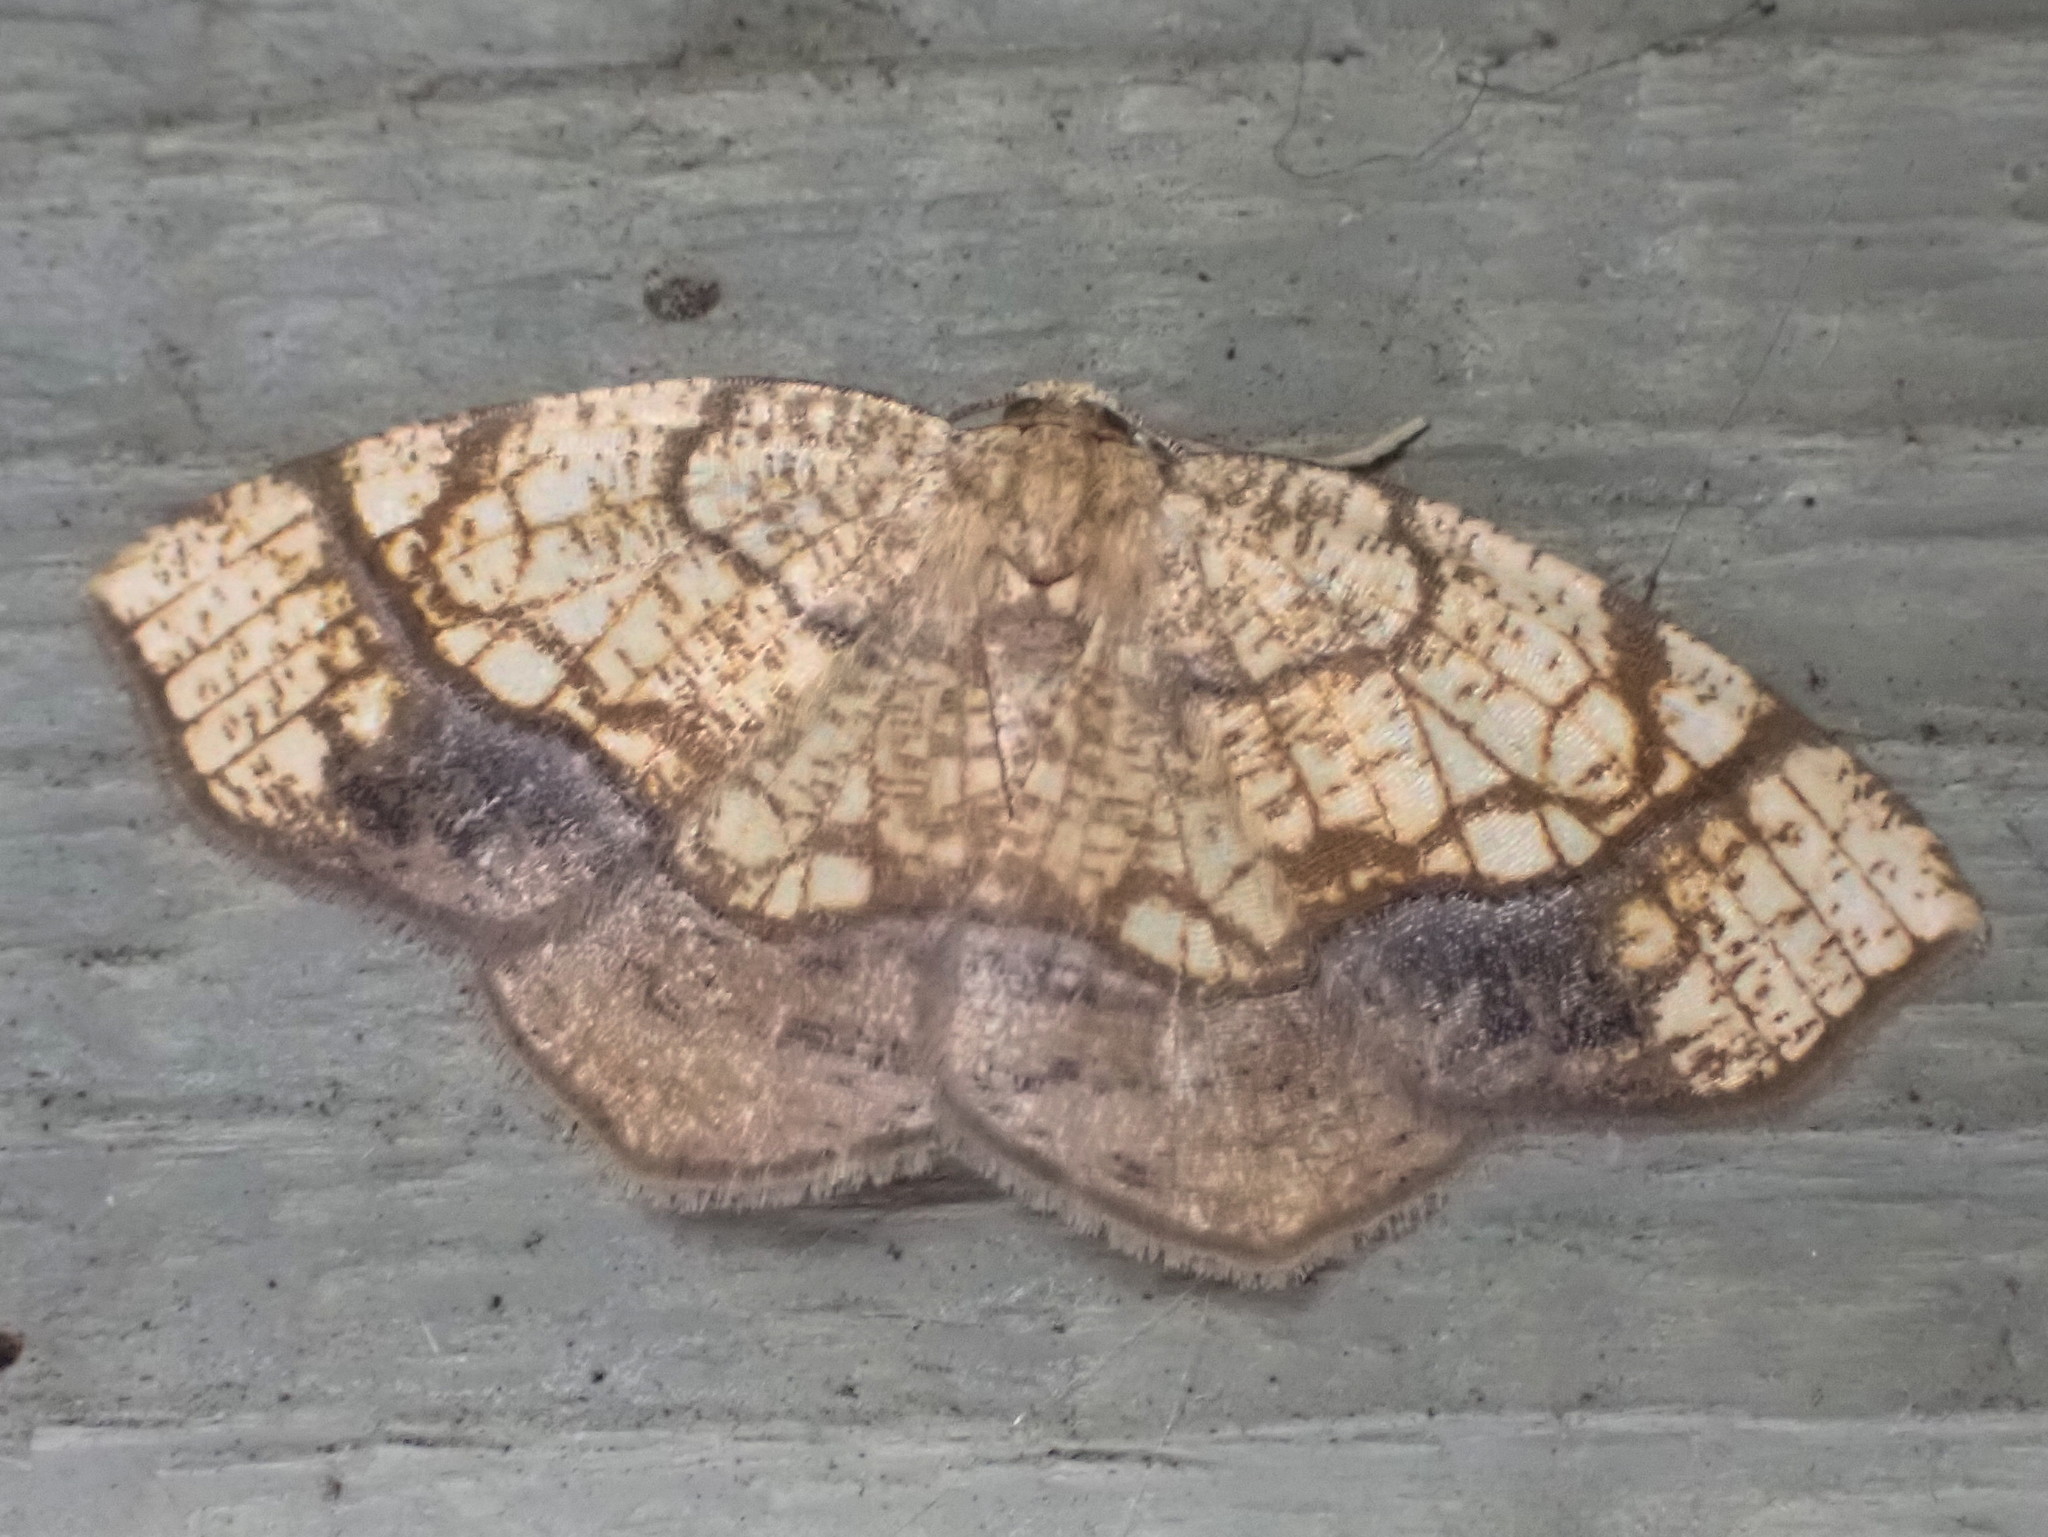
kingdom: Animalia
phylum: Arthropoda
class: Insecta
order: Lepidoptera
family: Geometridae
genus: Nematocampa
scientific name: Nematocampa resistaria
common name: Horned spanworm moth
